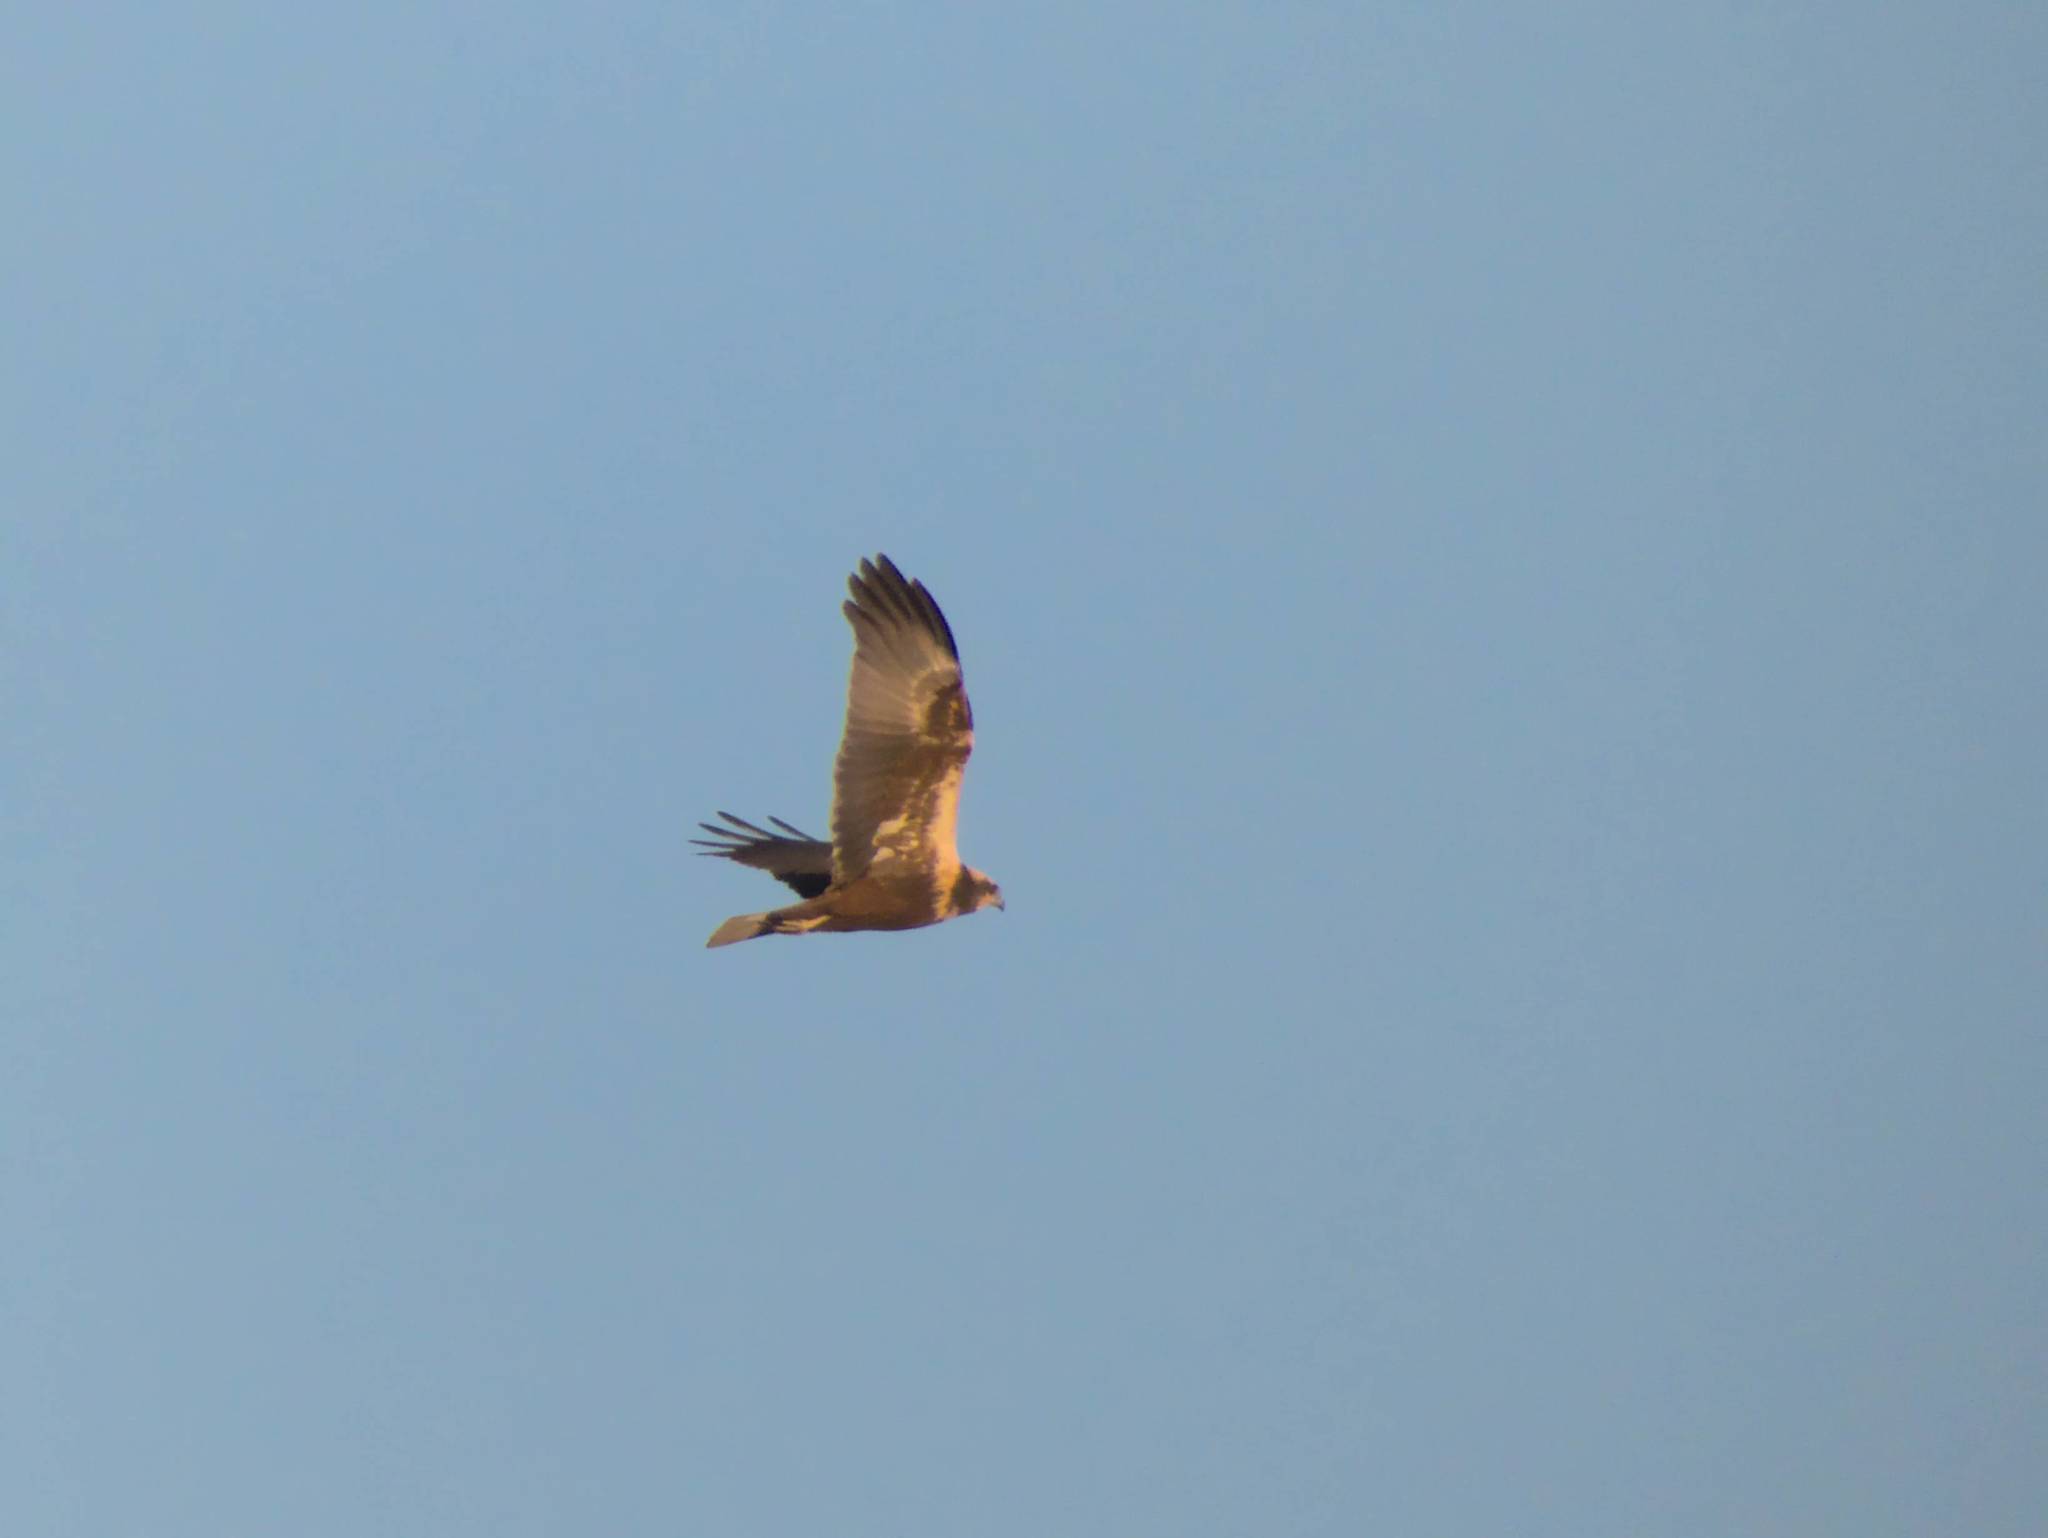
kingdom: Animalia
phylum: Chordata
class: Aves
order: Accipitriformes
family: Accipitridae
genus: Circus
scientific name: Circus aeruginosus
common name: Western marsh harrier
